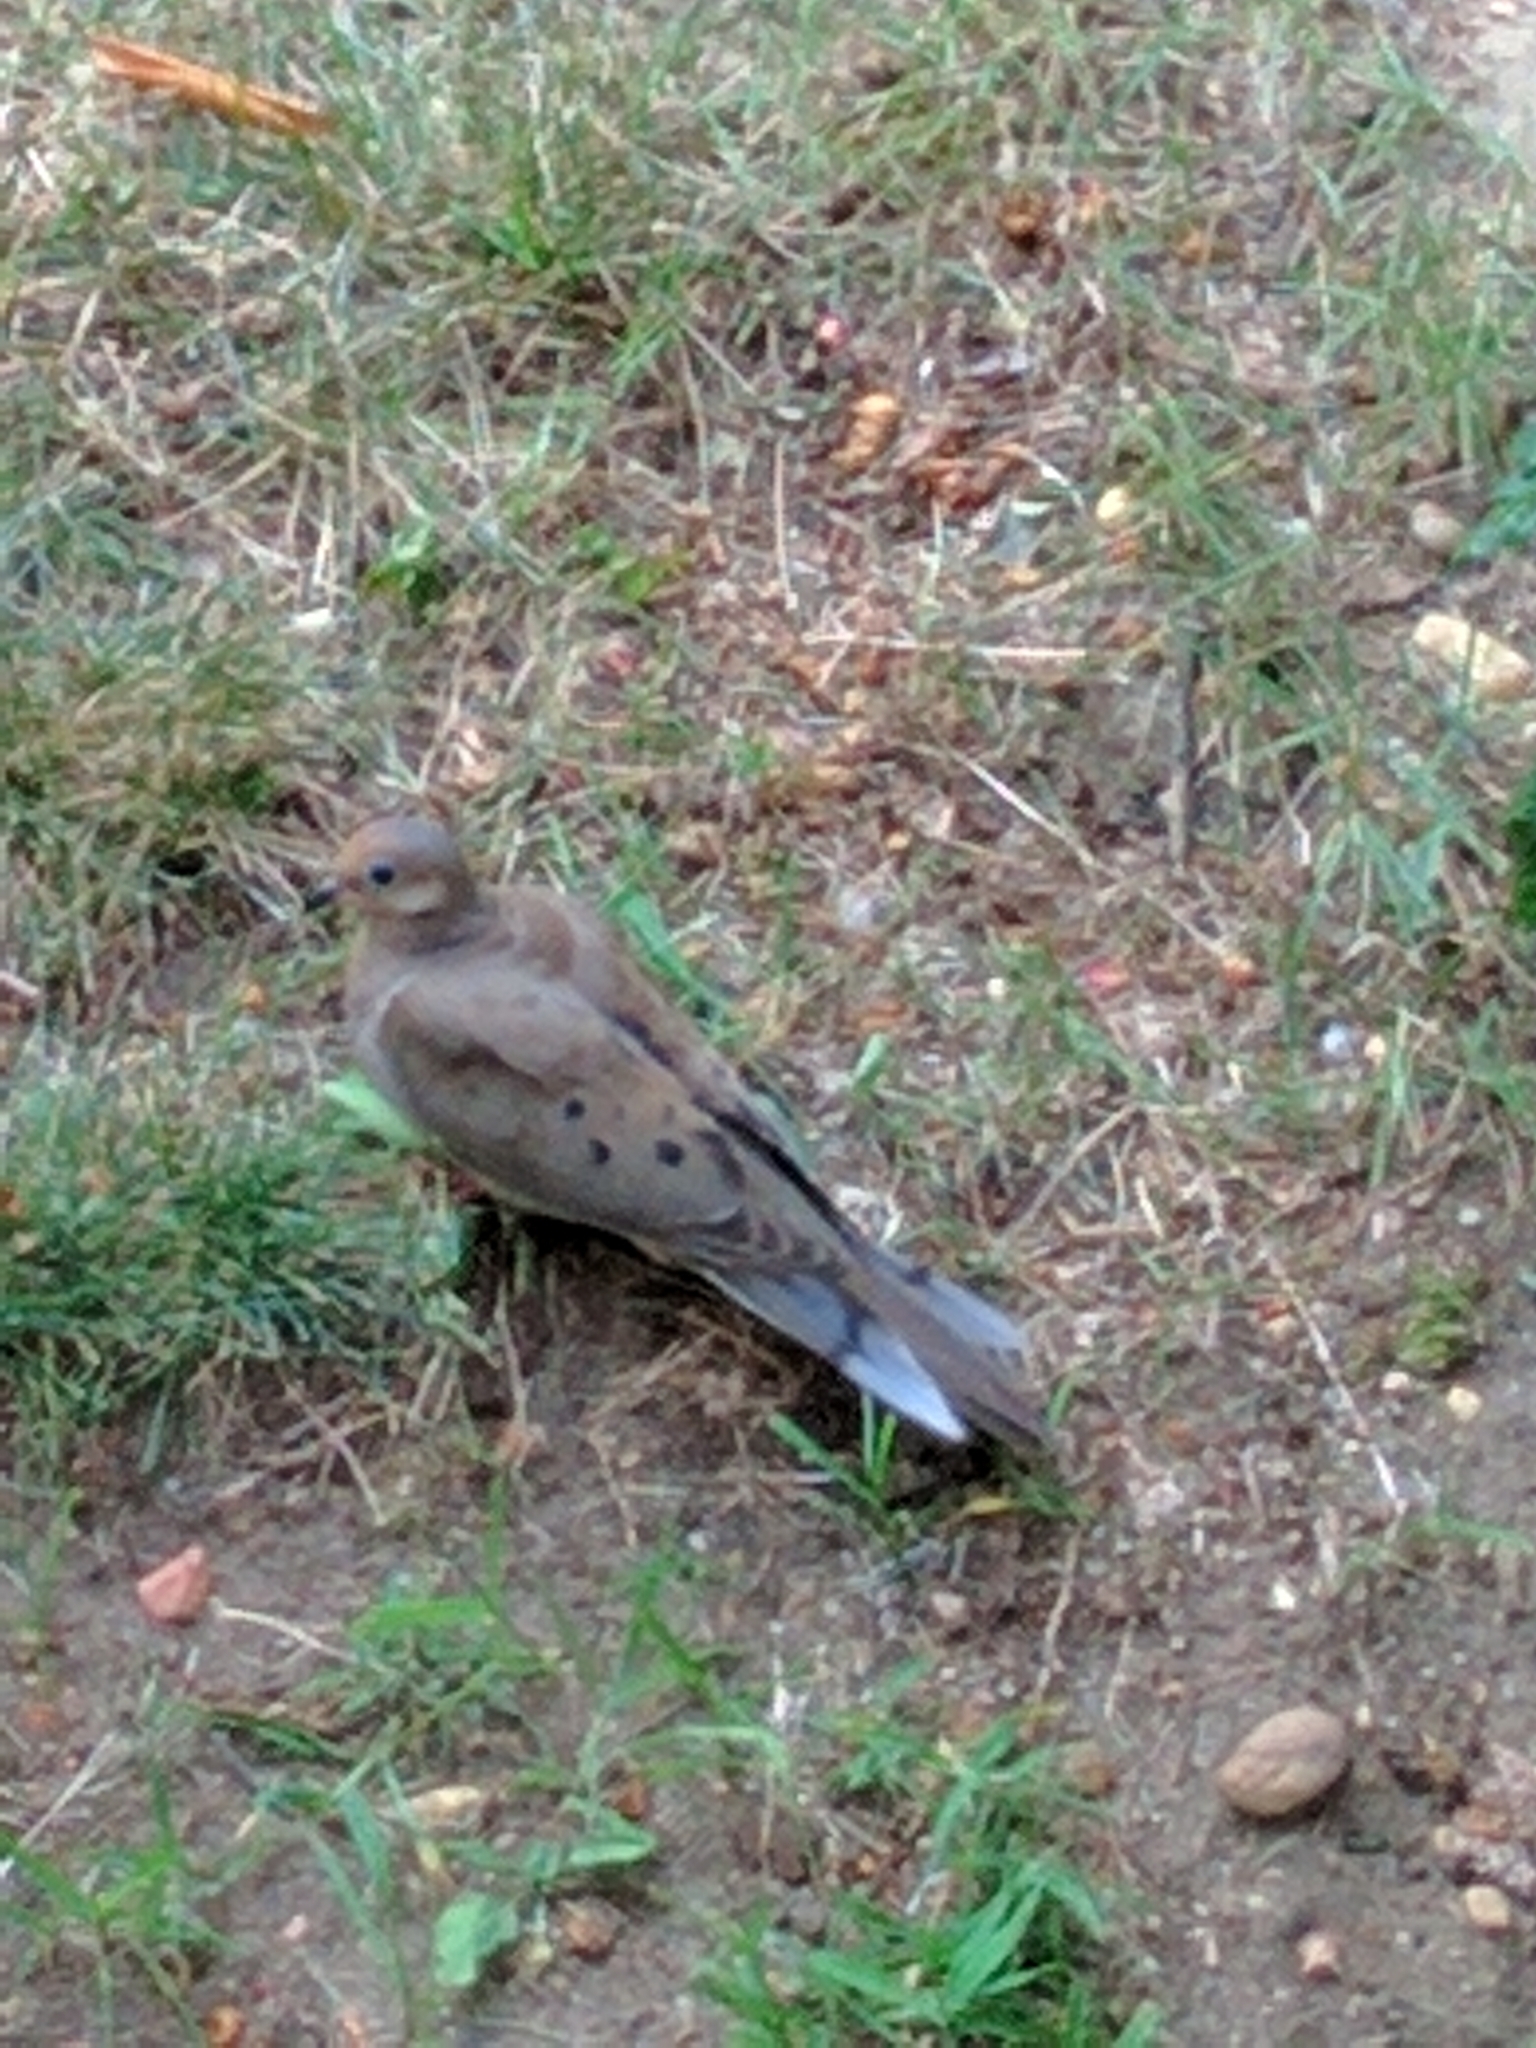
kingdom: Animalia
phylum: Chordata
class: Aves
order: Columbiformes
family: Columbidae
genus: Zenaida
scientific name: Zenaida macroura
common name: Mourning dove
